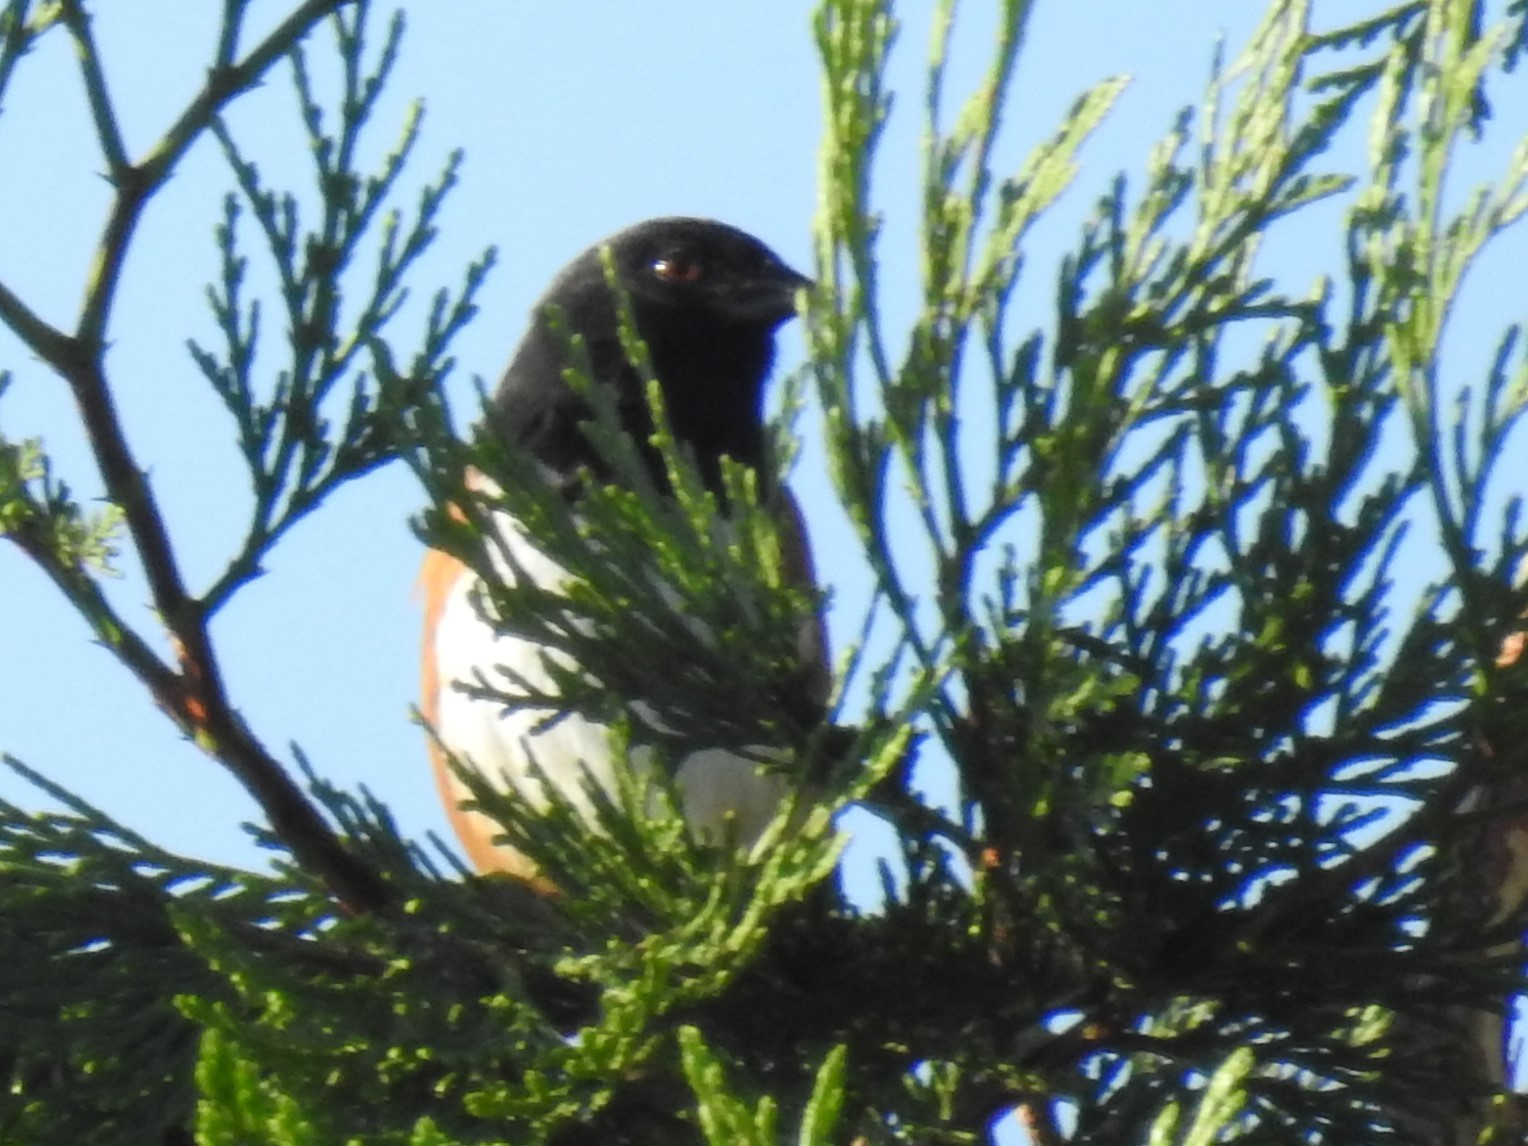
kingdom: Animalia
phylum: Chordata
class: Aves
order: Passeriformes
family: Passerellidae
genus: Pipilo
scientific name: Pipilo maculatus
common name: Spotted towhee
